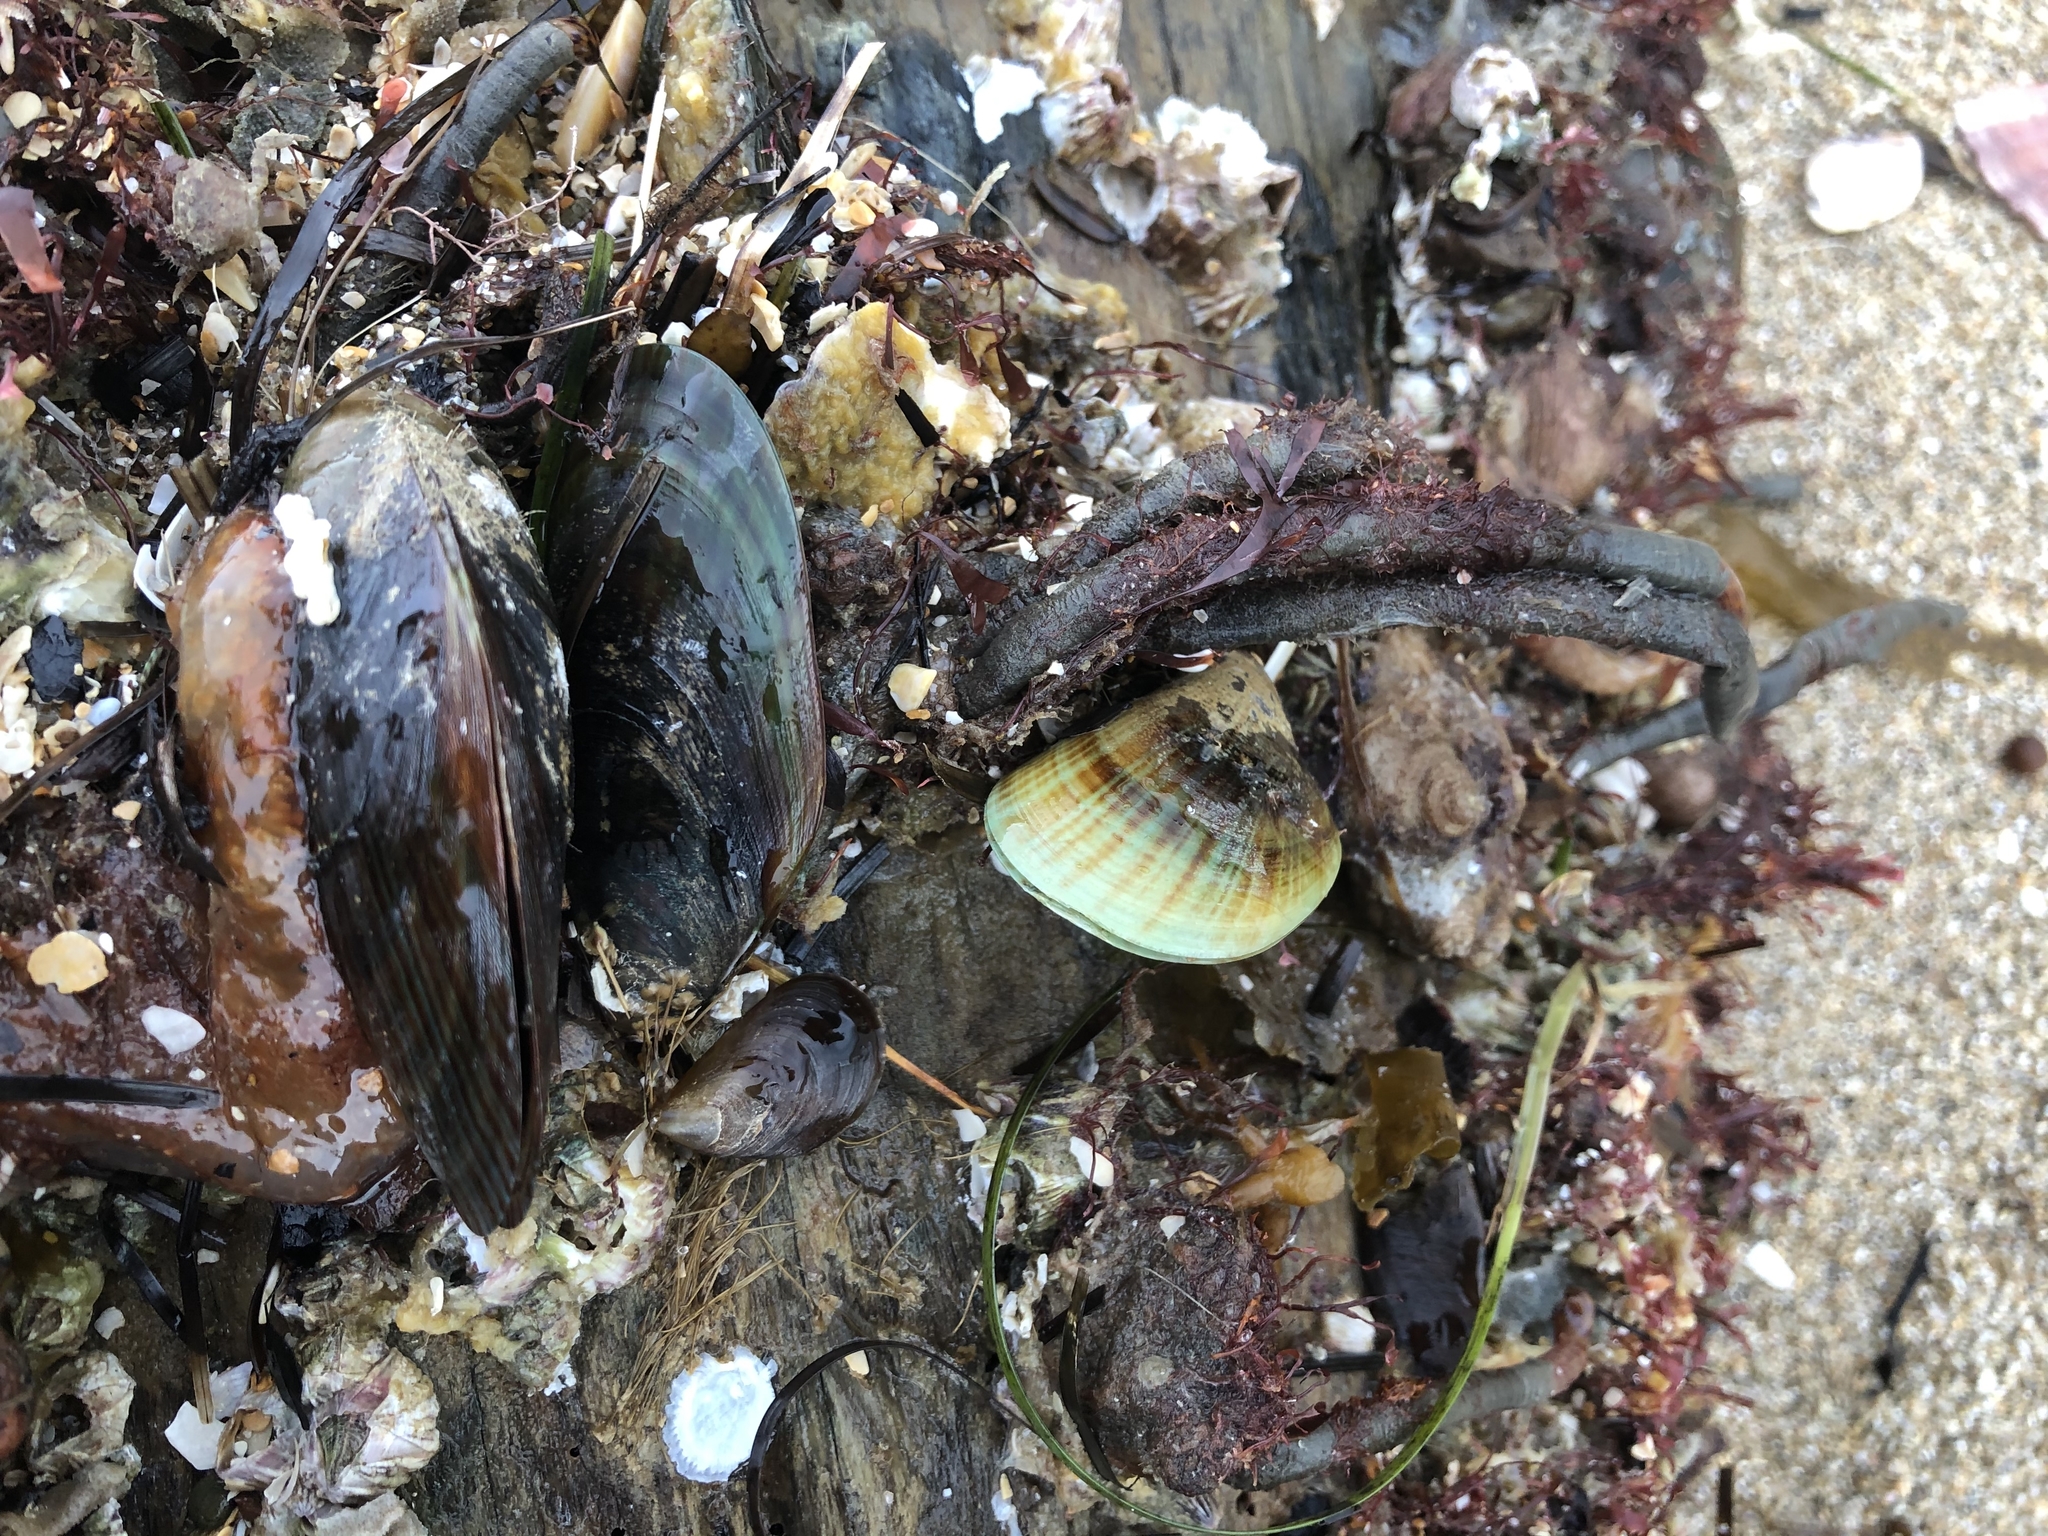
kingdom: Animalia
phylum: Mollusca
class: Bivalvia
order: Mytilida
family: Mytilidae
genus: Perna
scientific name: Perna canaliculus
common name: New zealand greenshelltm
